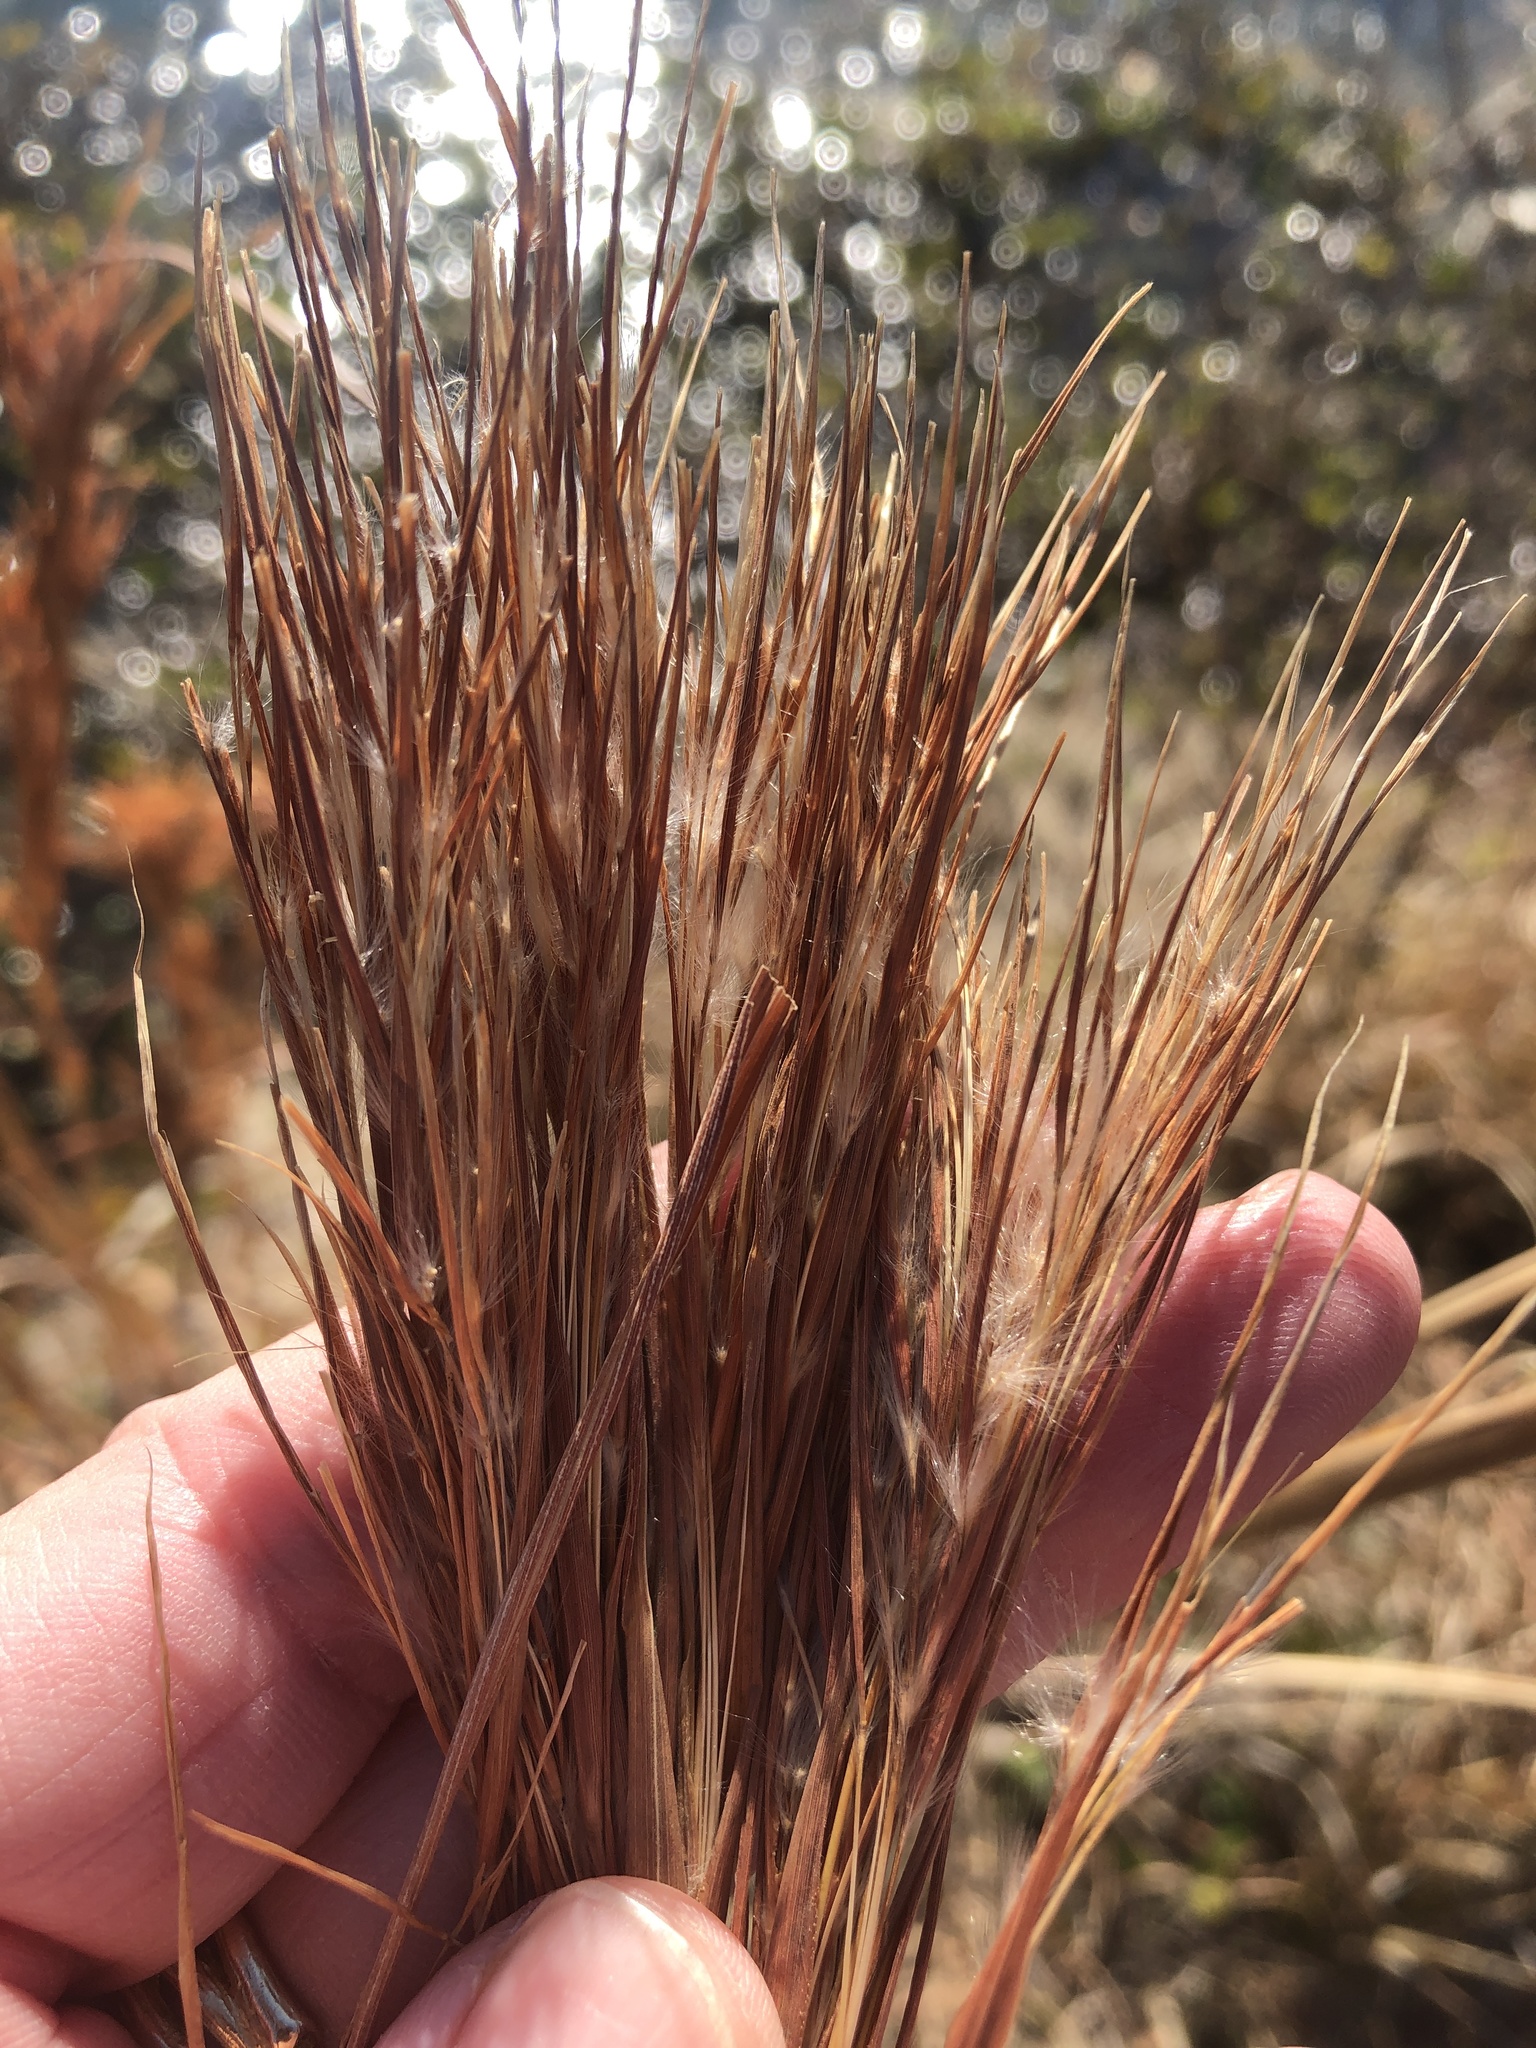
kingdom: Plantae
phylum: Tracheophyta
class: Liliopsida
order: Poales
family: Poaceae
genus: Andropogon
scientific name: Andropogon tenuispatheus
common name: Bushy bluestem
